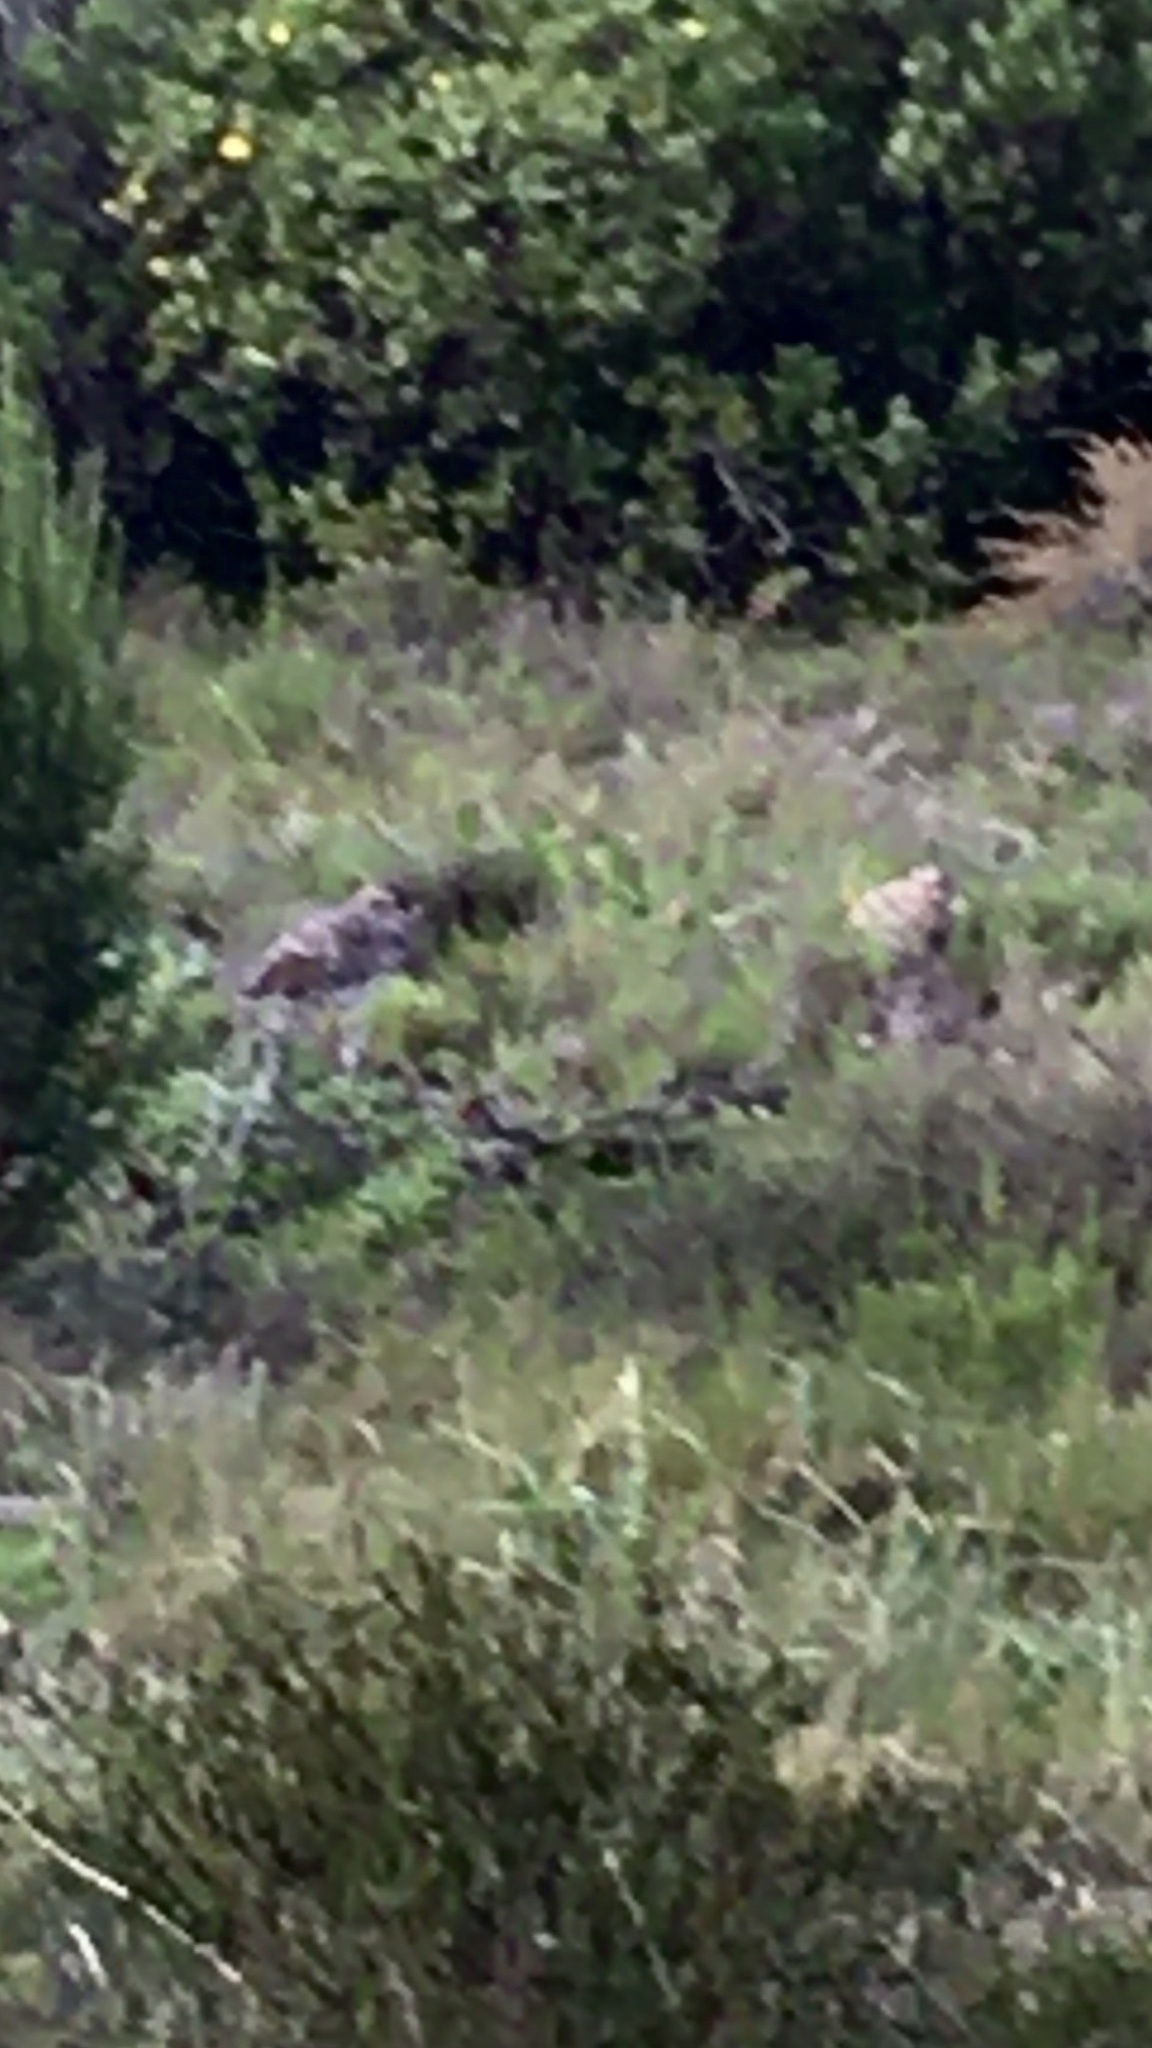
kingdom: Animalia
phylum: Chordata
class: Aves
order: Charadriiformes
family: Burhinidae
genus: Burhinus
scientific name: Burhinus capensis
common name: Spotted thick-knee
